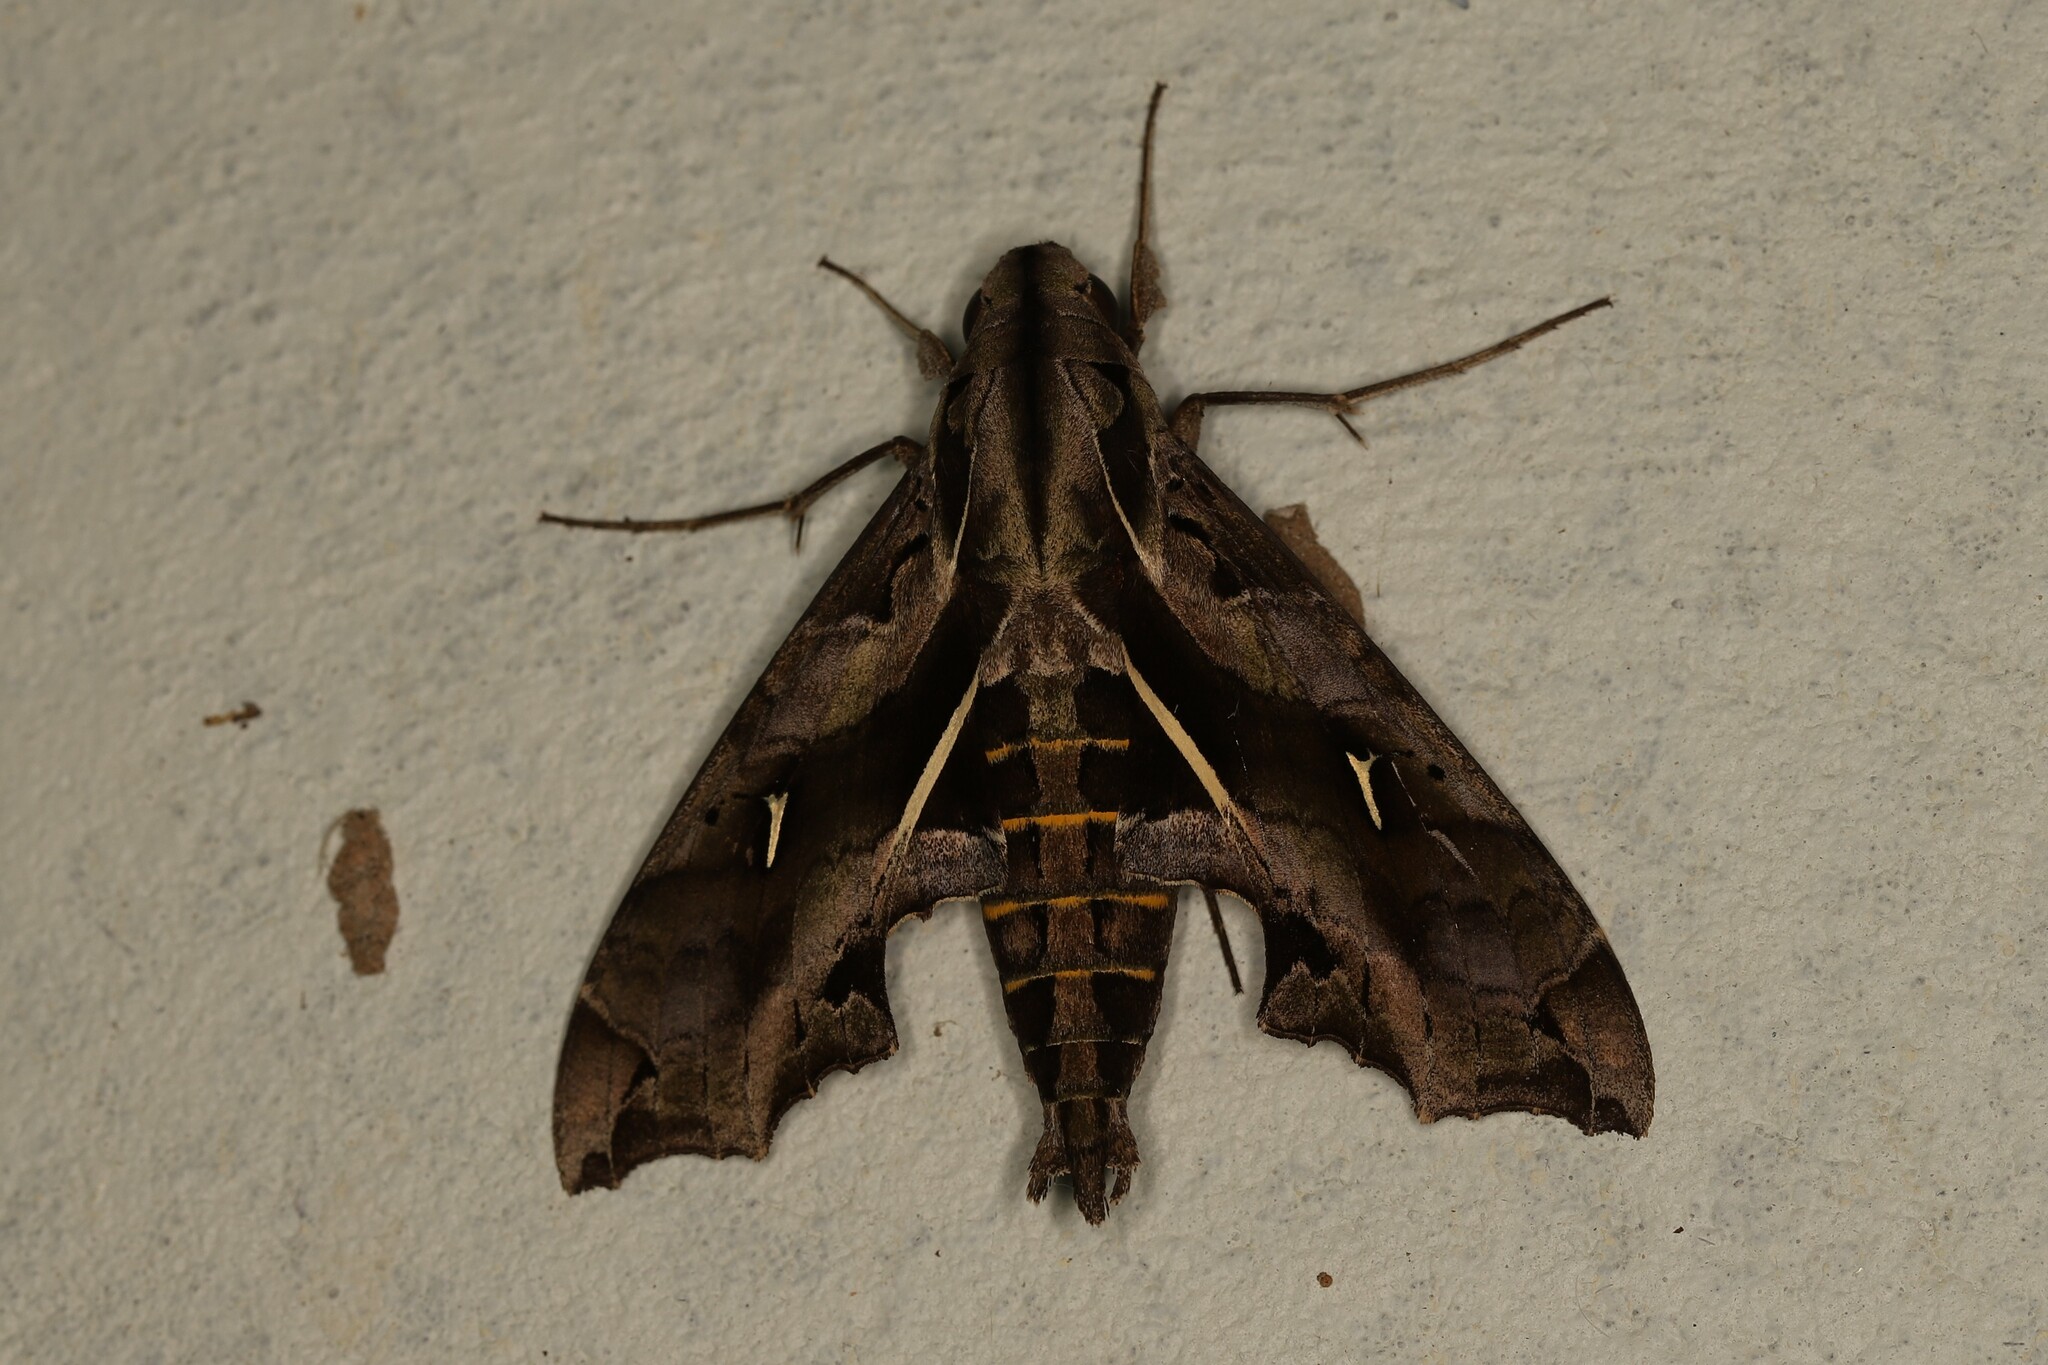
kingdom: Animalia
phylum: Arthropoda
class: Insecta
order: Lepidoptera
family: Sphingidae
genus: Hemeroplanes
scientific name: Hemeroplanes triptolemus
